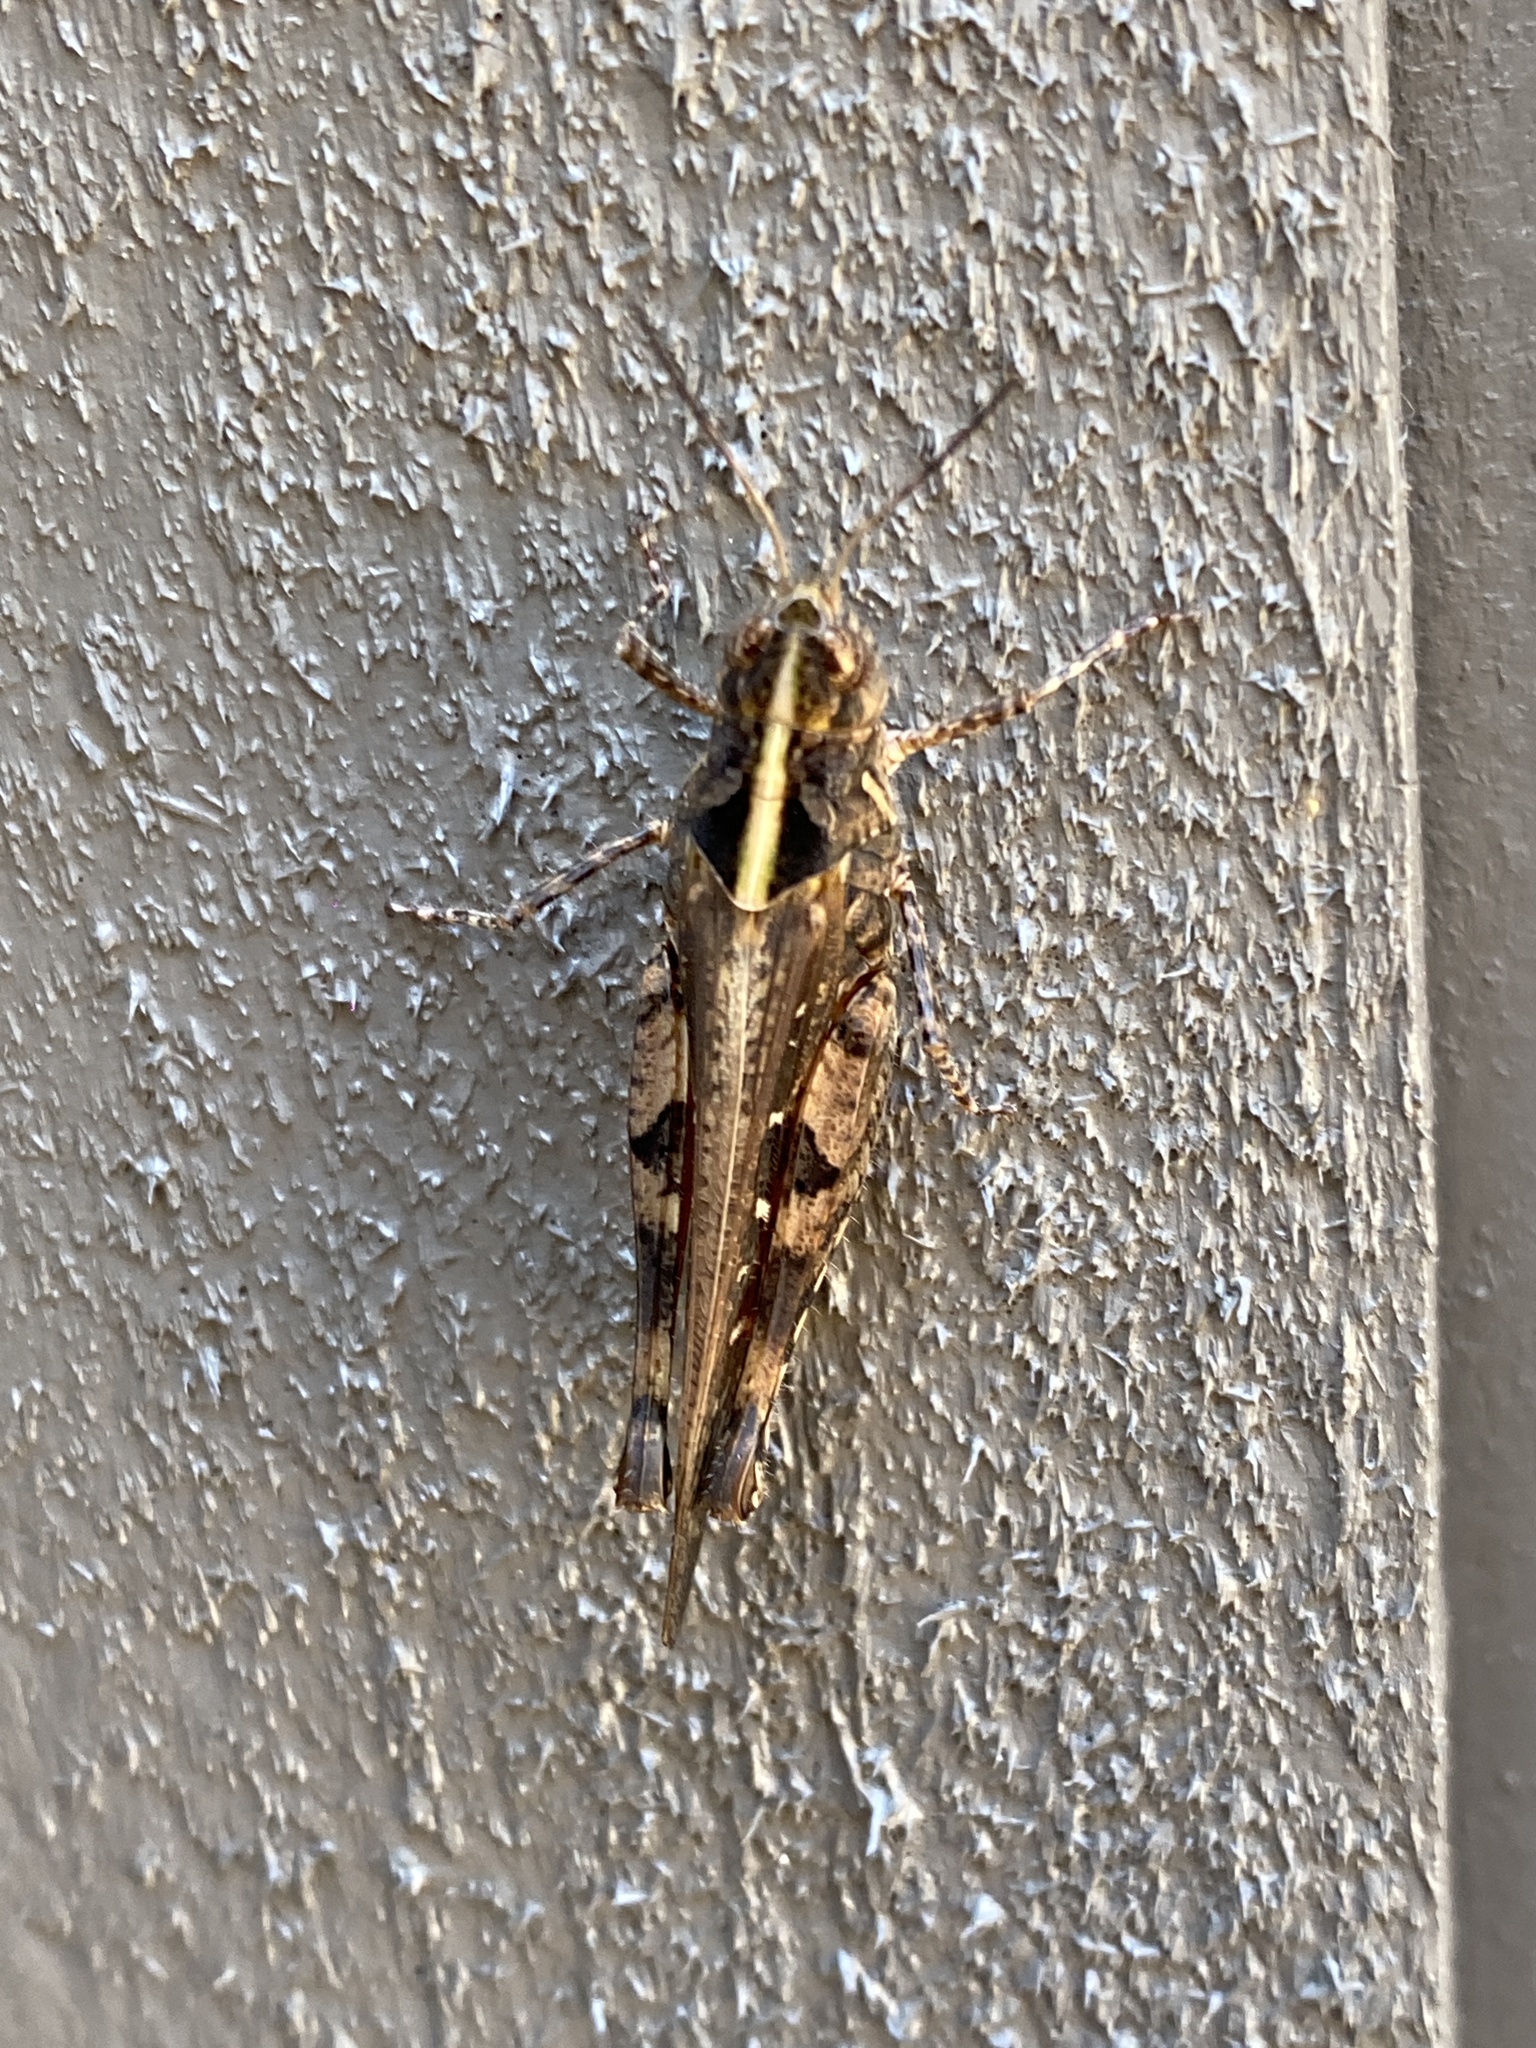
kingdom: Animalia
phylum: Arthropoda
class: Insecta
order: Orthoptera
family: Acrididae
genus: Heteropternis
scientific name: Heteropternis obscurella
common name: Long-legged bandwing
